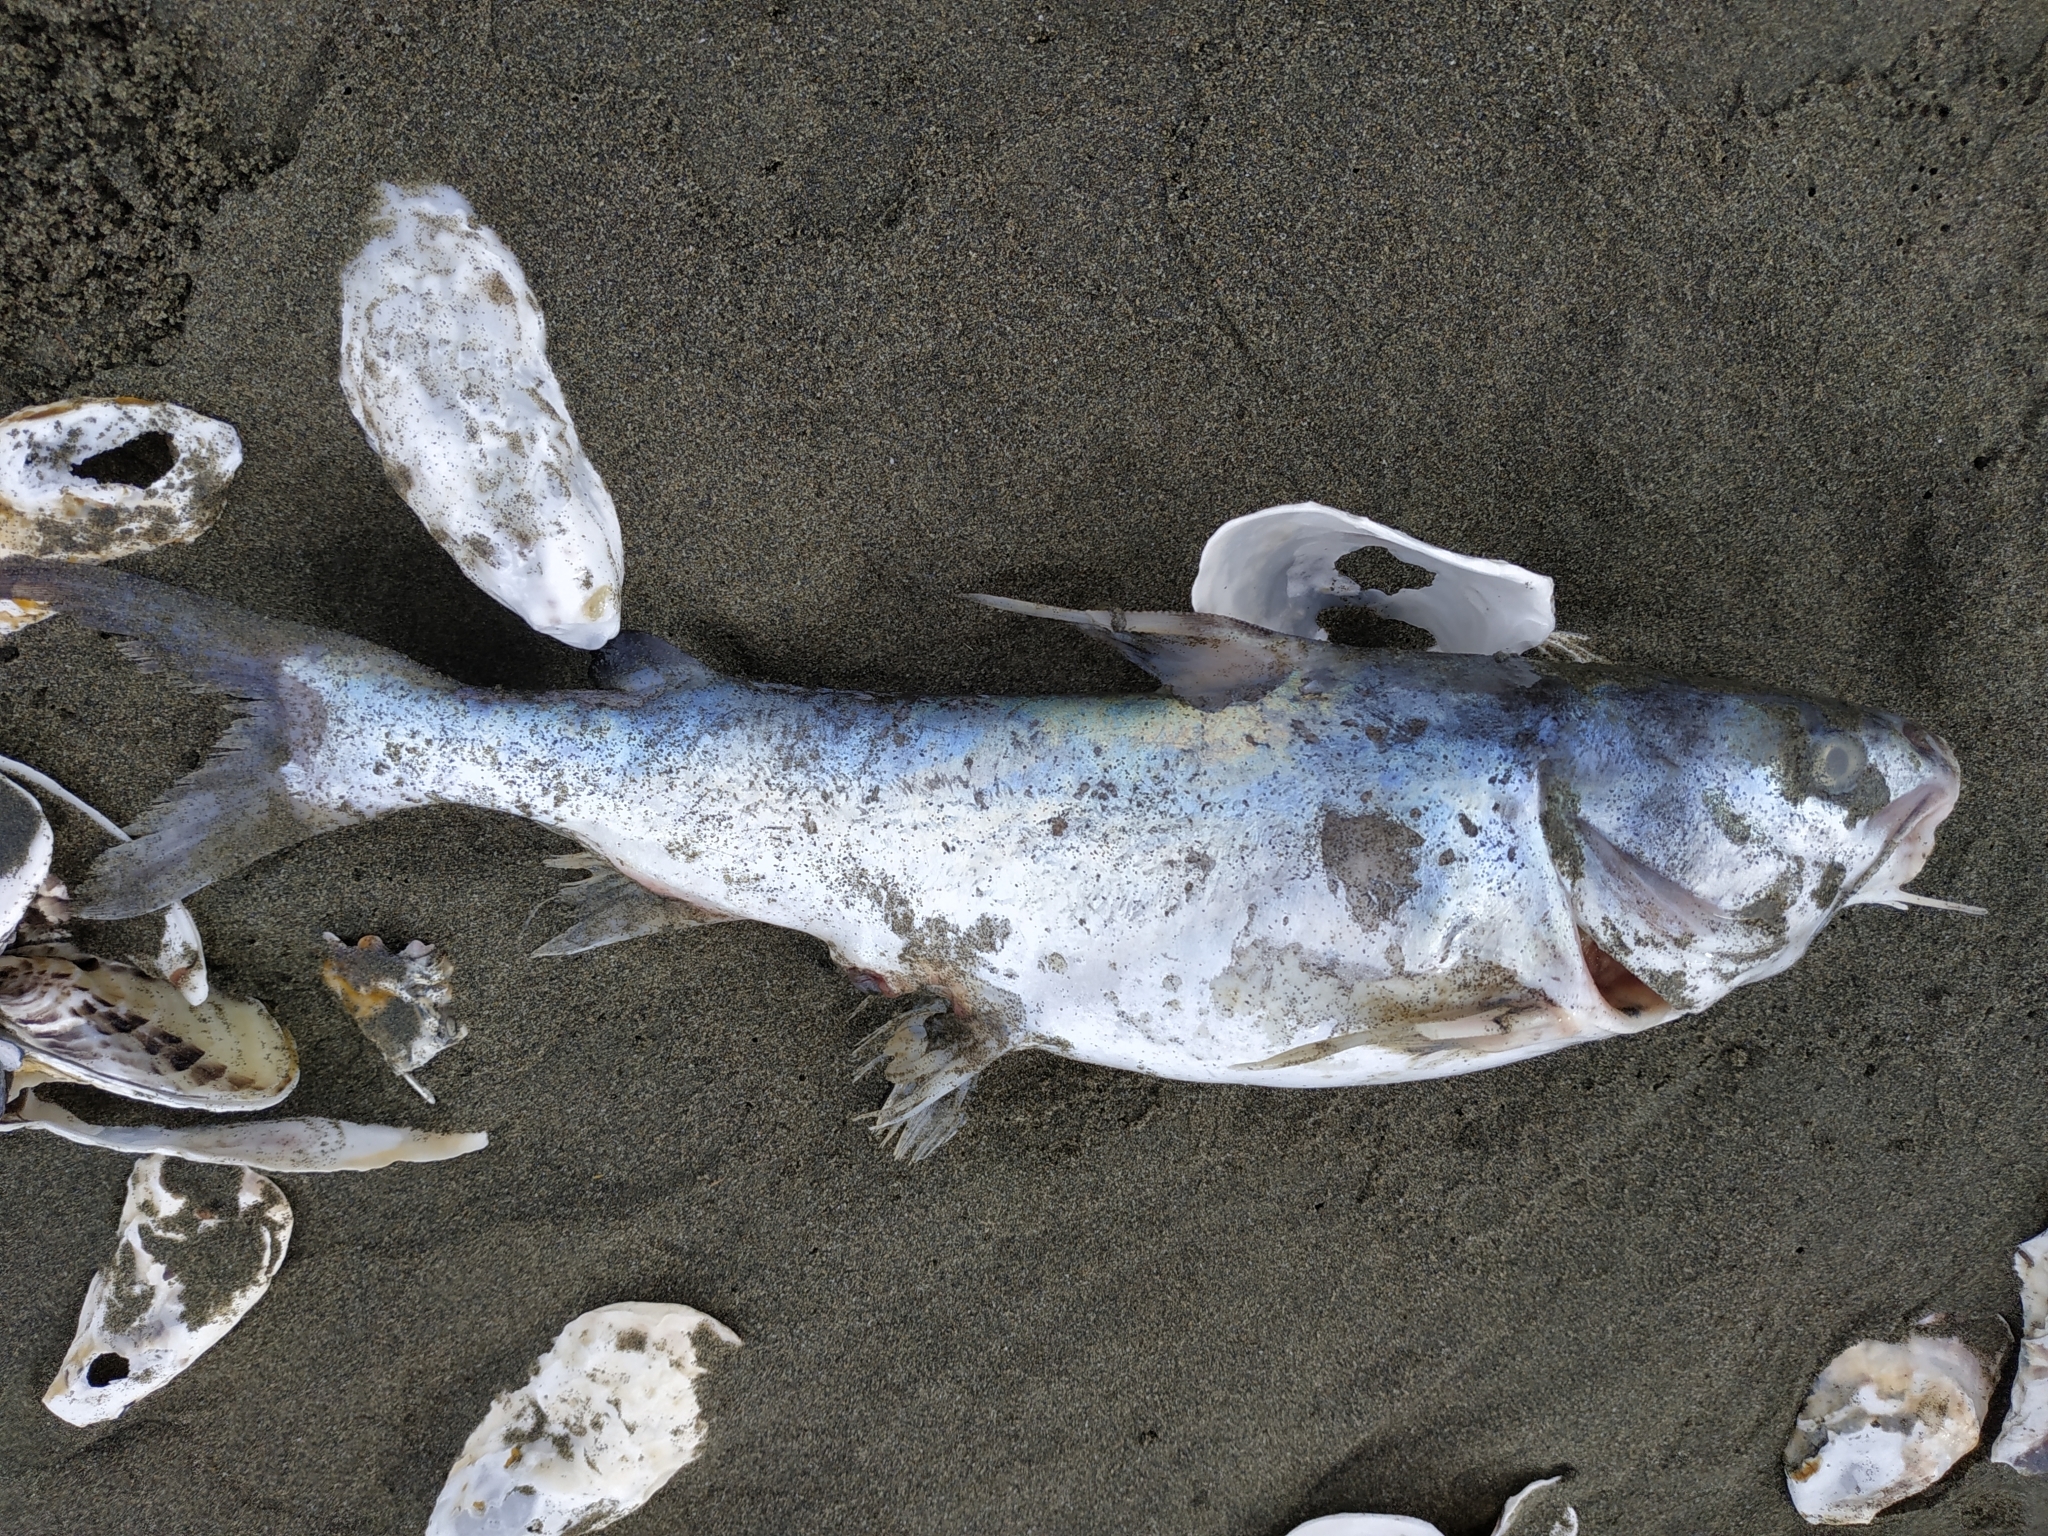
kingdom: Animalia
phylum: Chordata
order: Siluriformes
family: Ariidae
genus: Arius
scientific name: Arius maculatus
